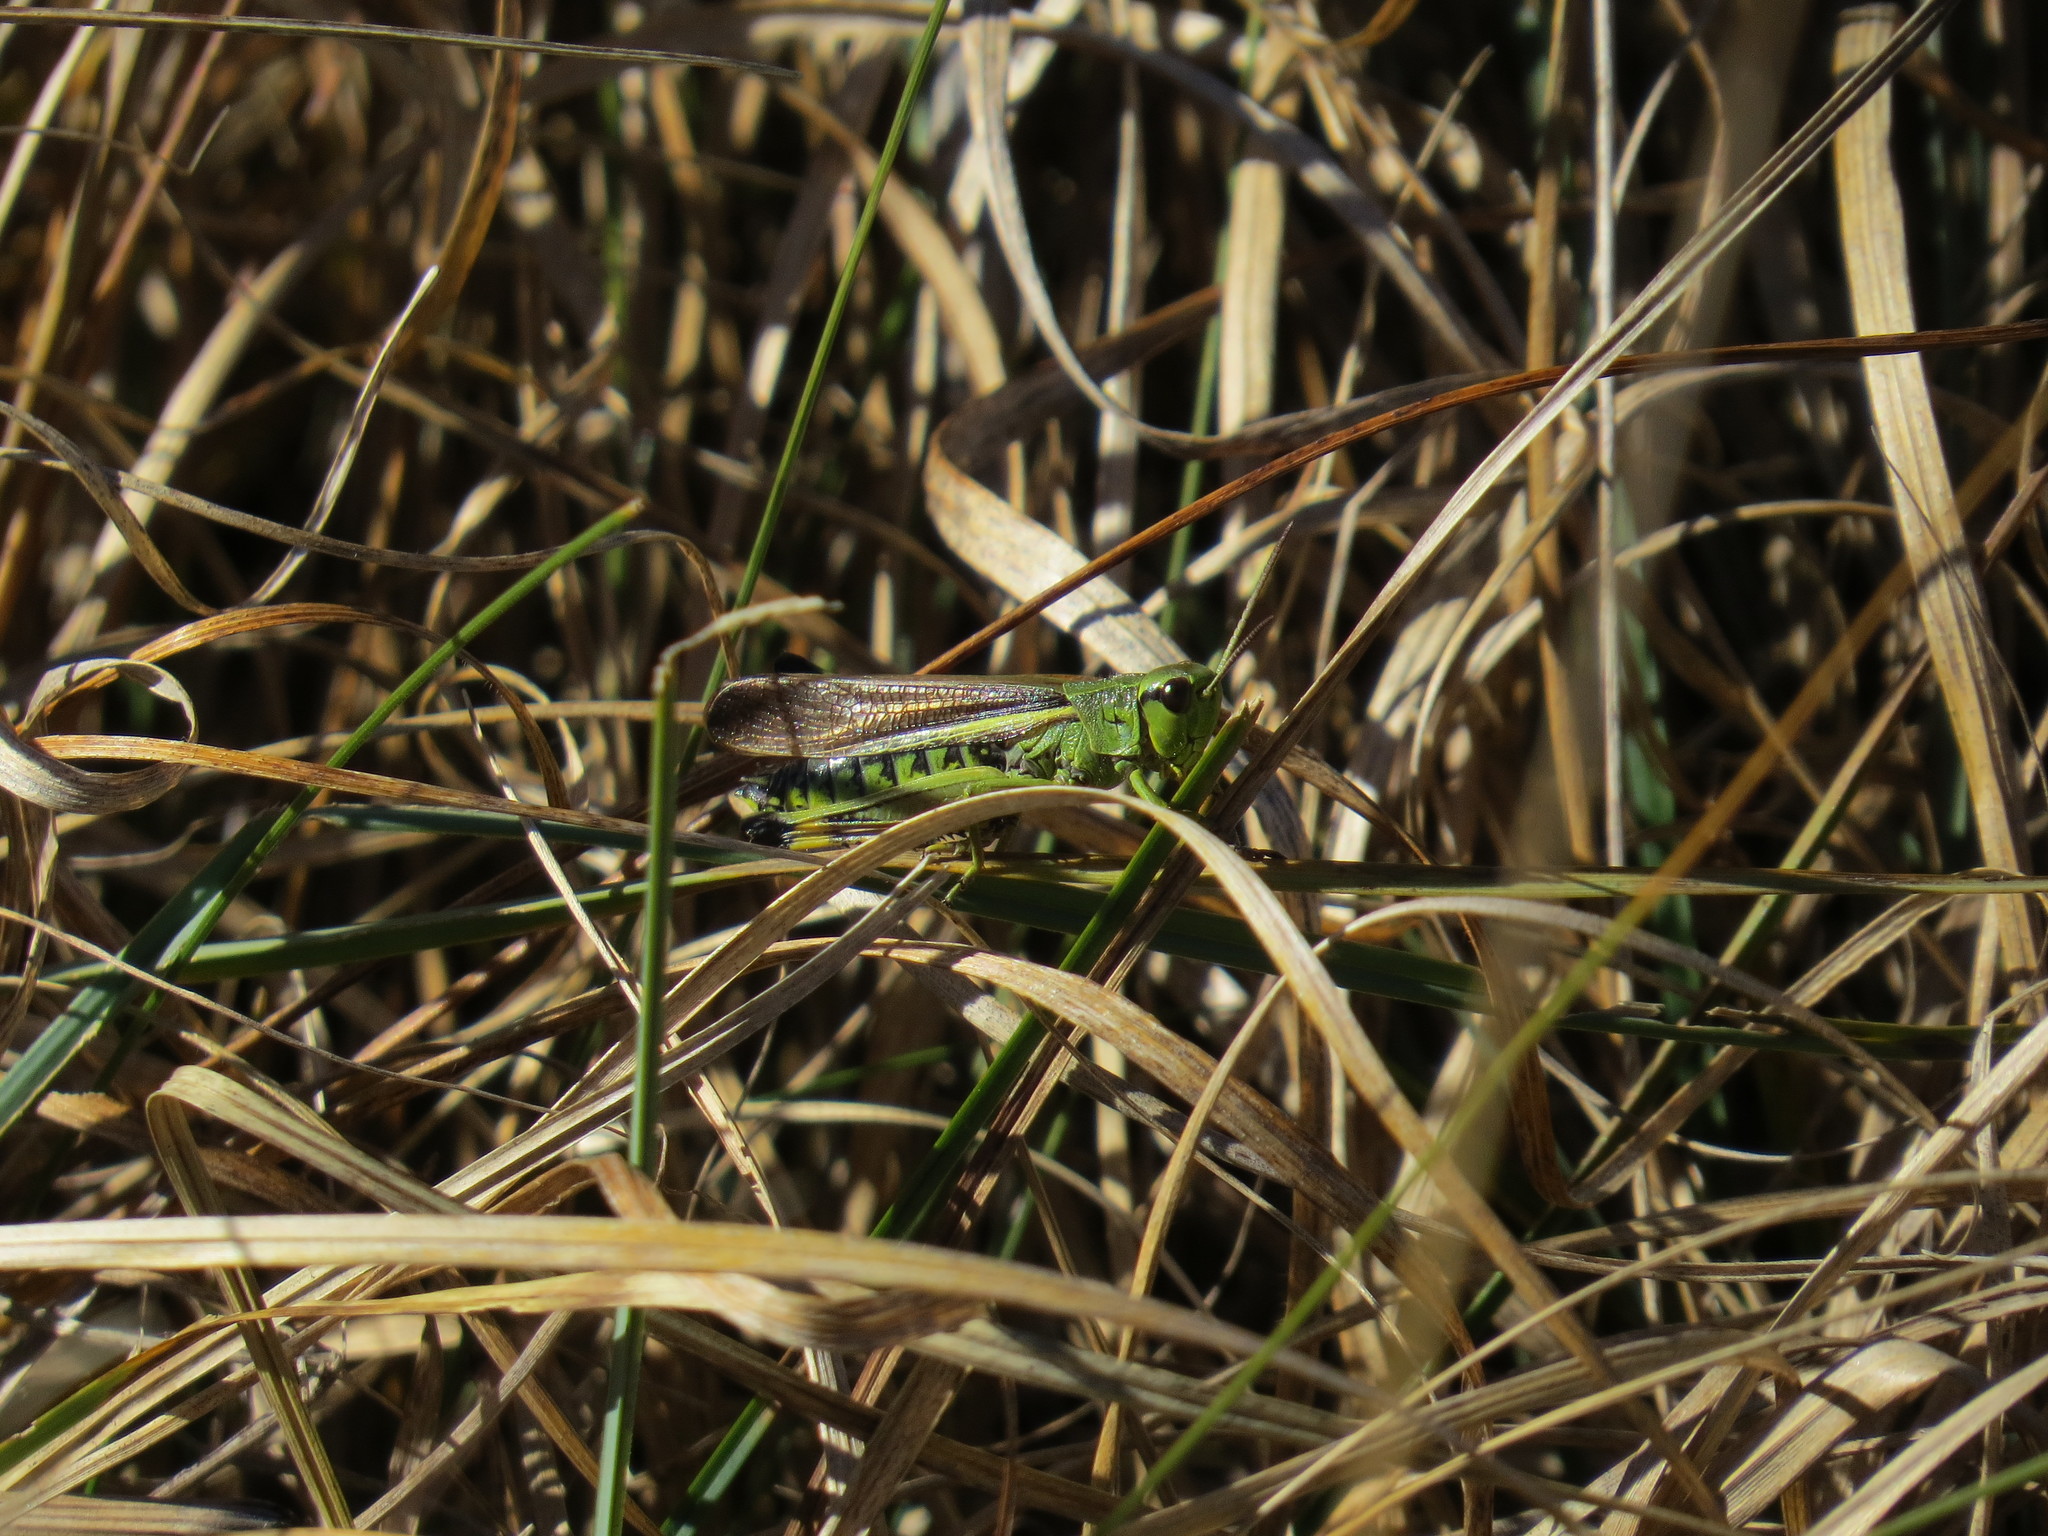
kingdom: Animalia
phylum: Arthropoda
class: Insecta
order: Orthoptera
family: Acrididae
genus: Stethophyma
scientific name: Stethophyma grossum
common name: Large marsh grasshopper
